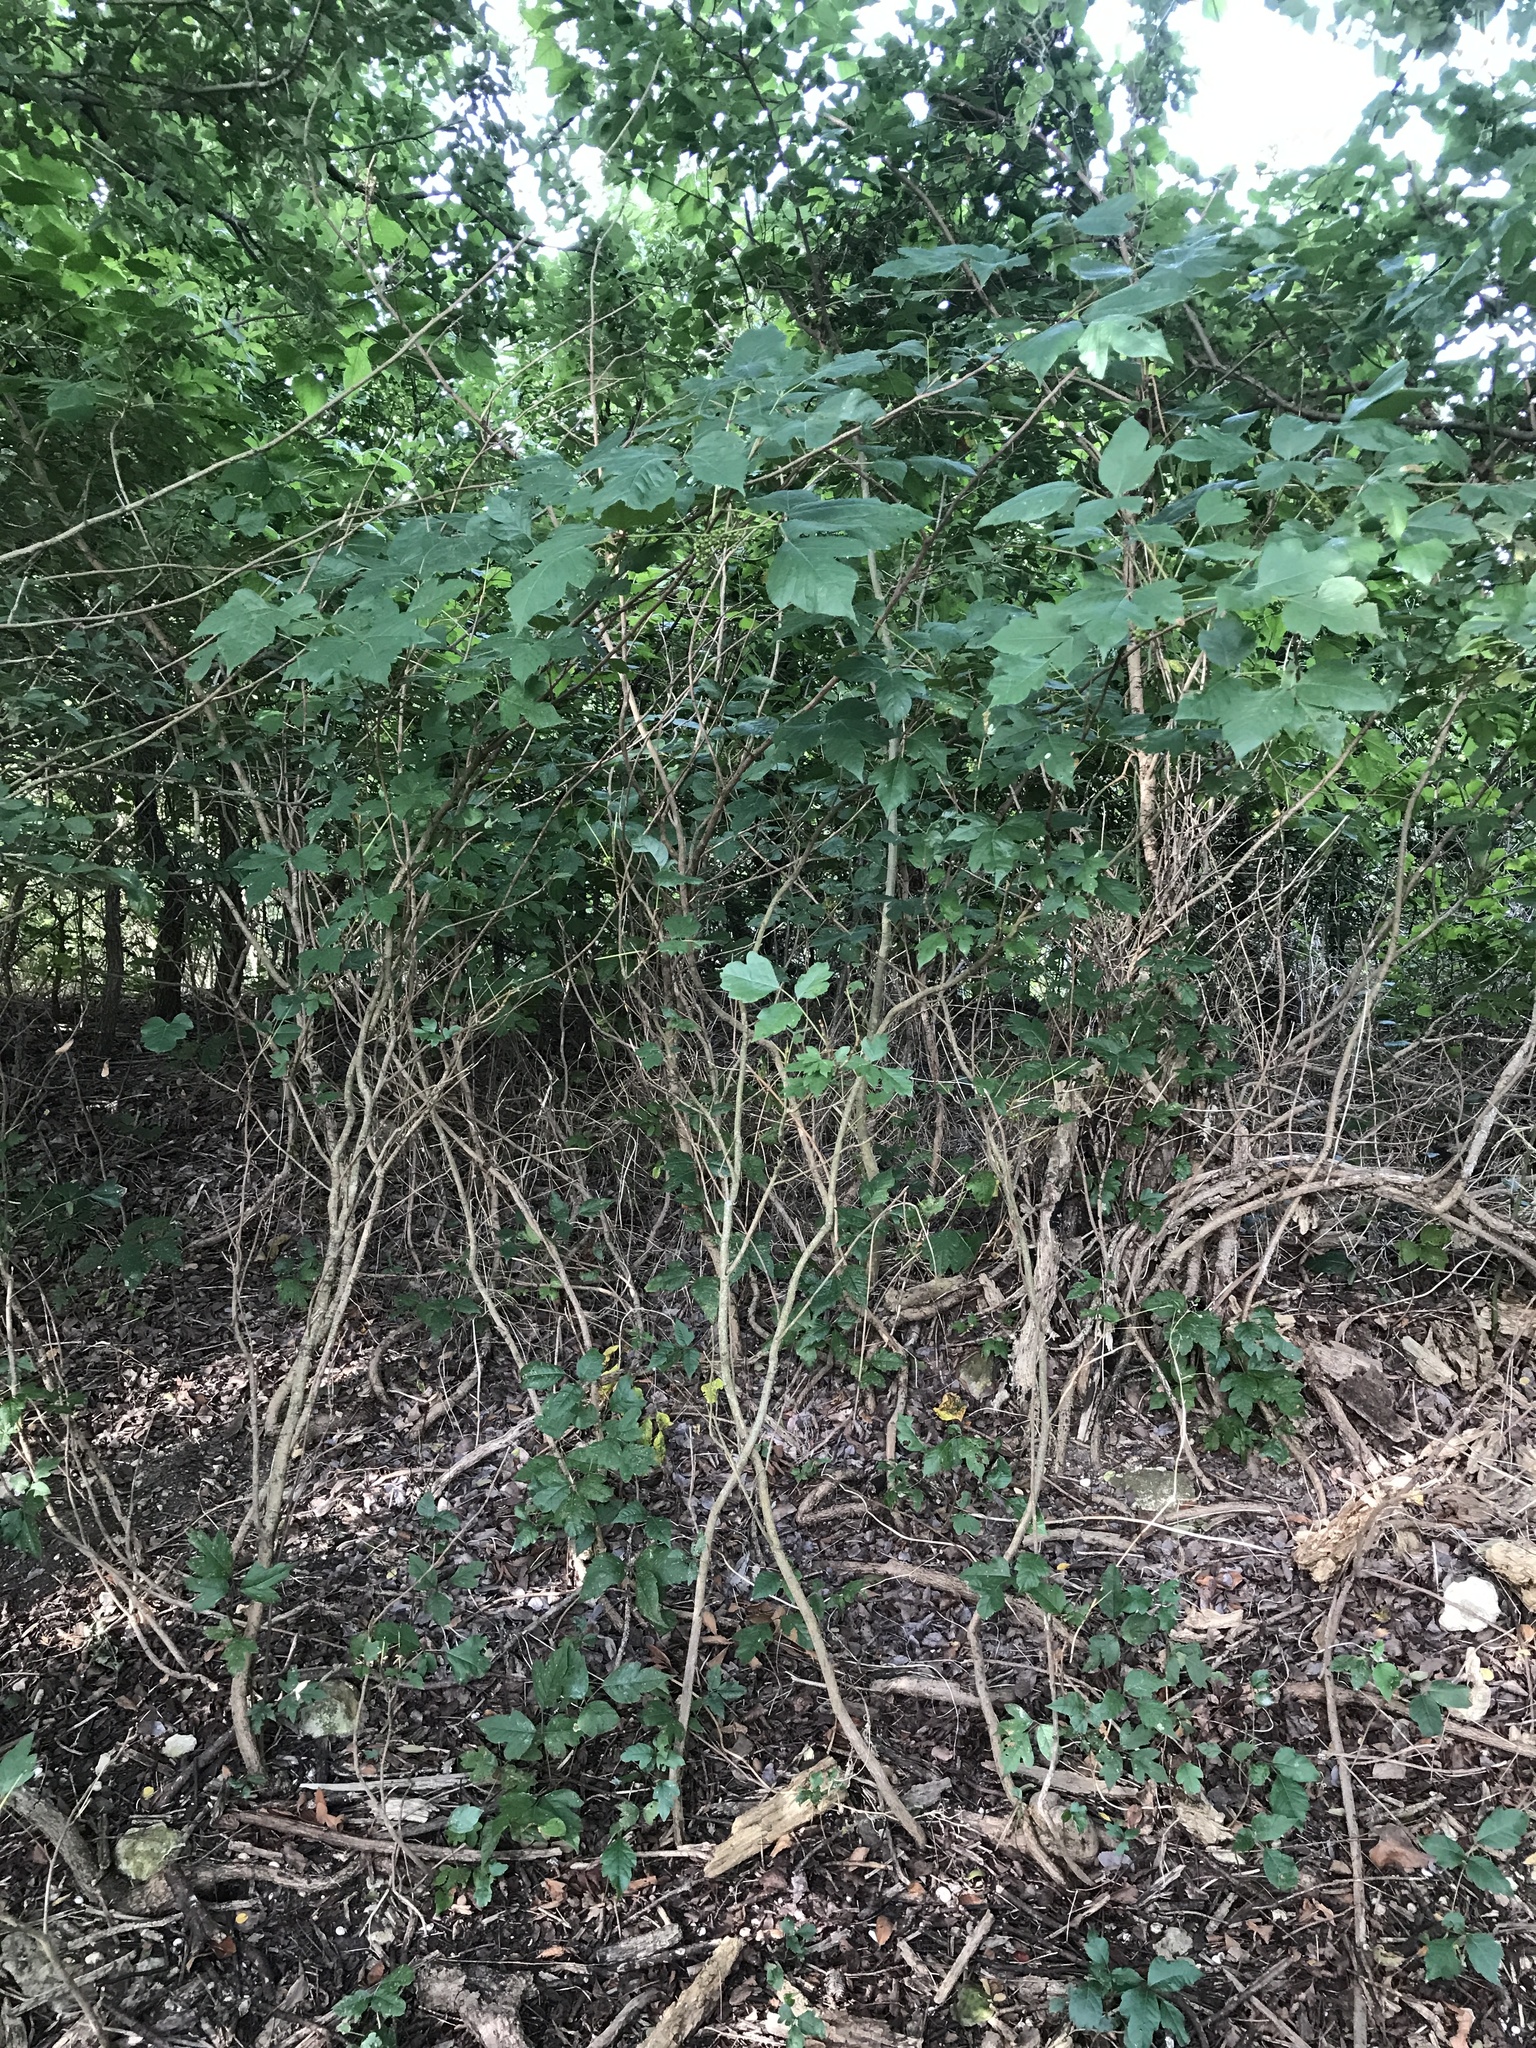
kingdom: Plantae
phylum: Tracheophyta
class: Magnoliopsida
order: Sapindales
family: Anacardiaceae
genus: Toxicodendron
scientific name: Toxicodendron radicans
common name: Poison ivy
